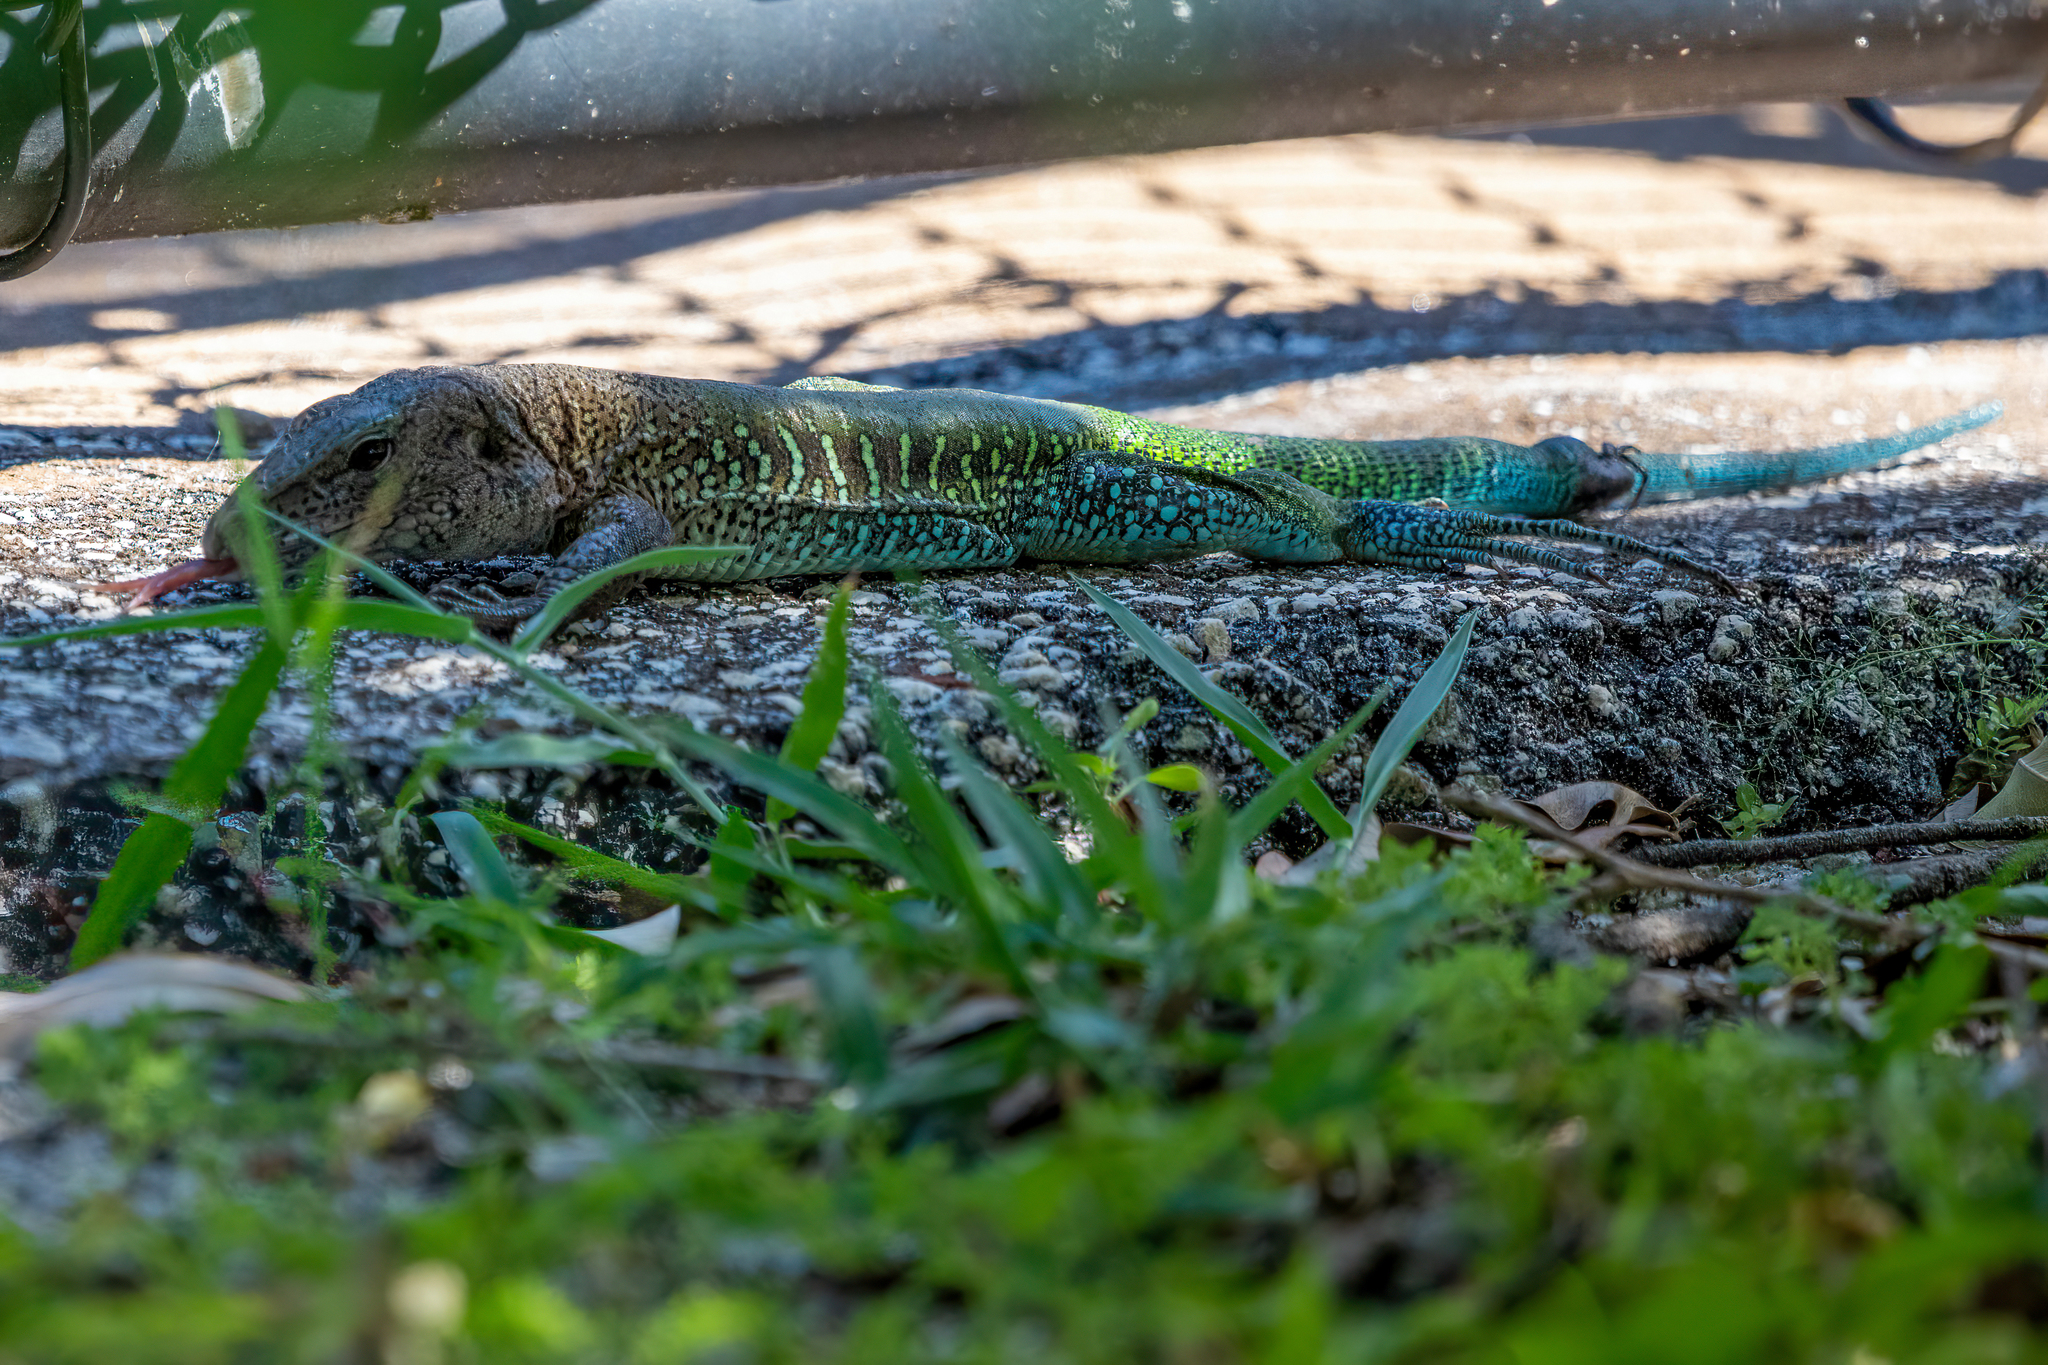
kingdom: Animalia
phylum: Chordata
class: Squamata
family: Teiidae
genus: Ameiva
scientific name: Ameiva ameiva
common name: Giant ameiva
